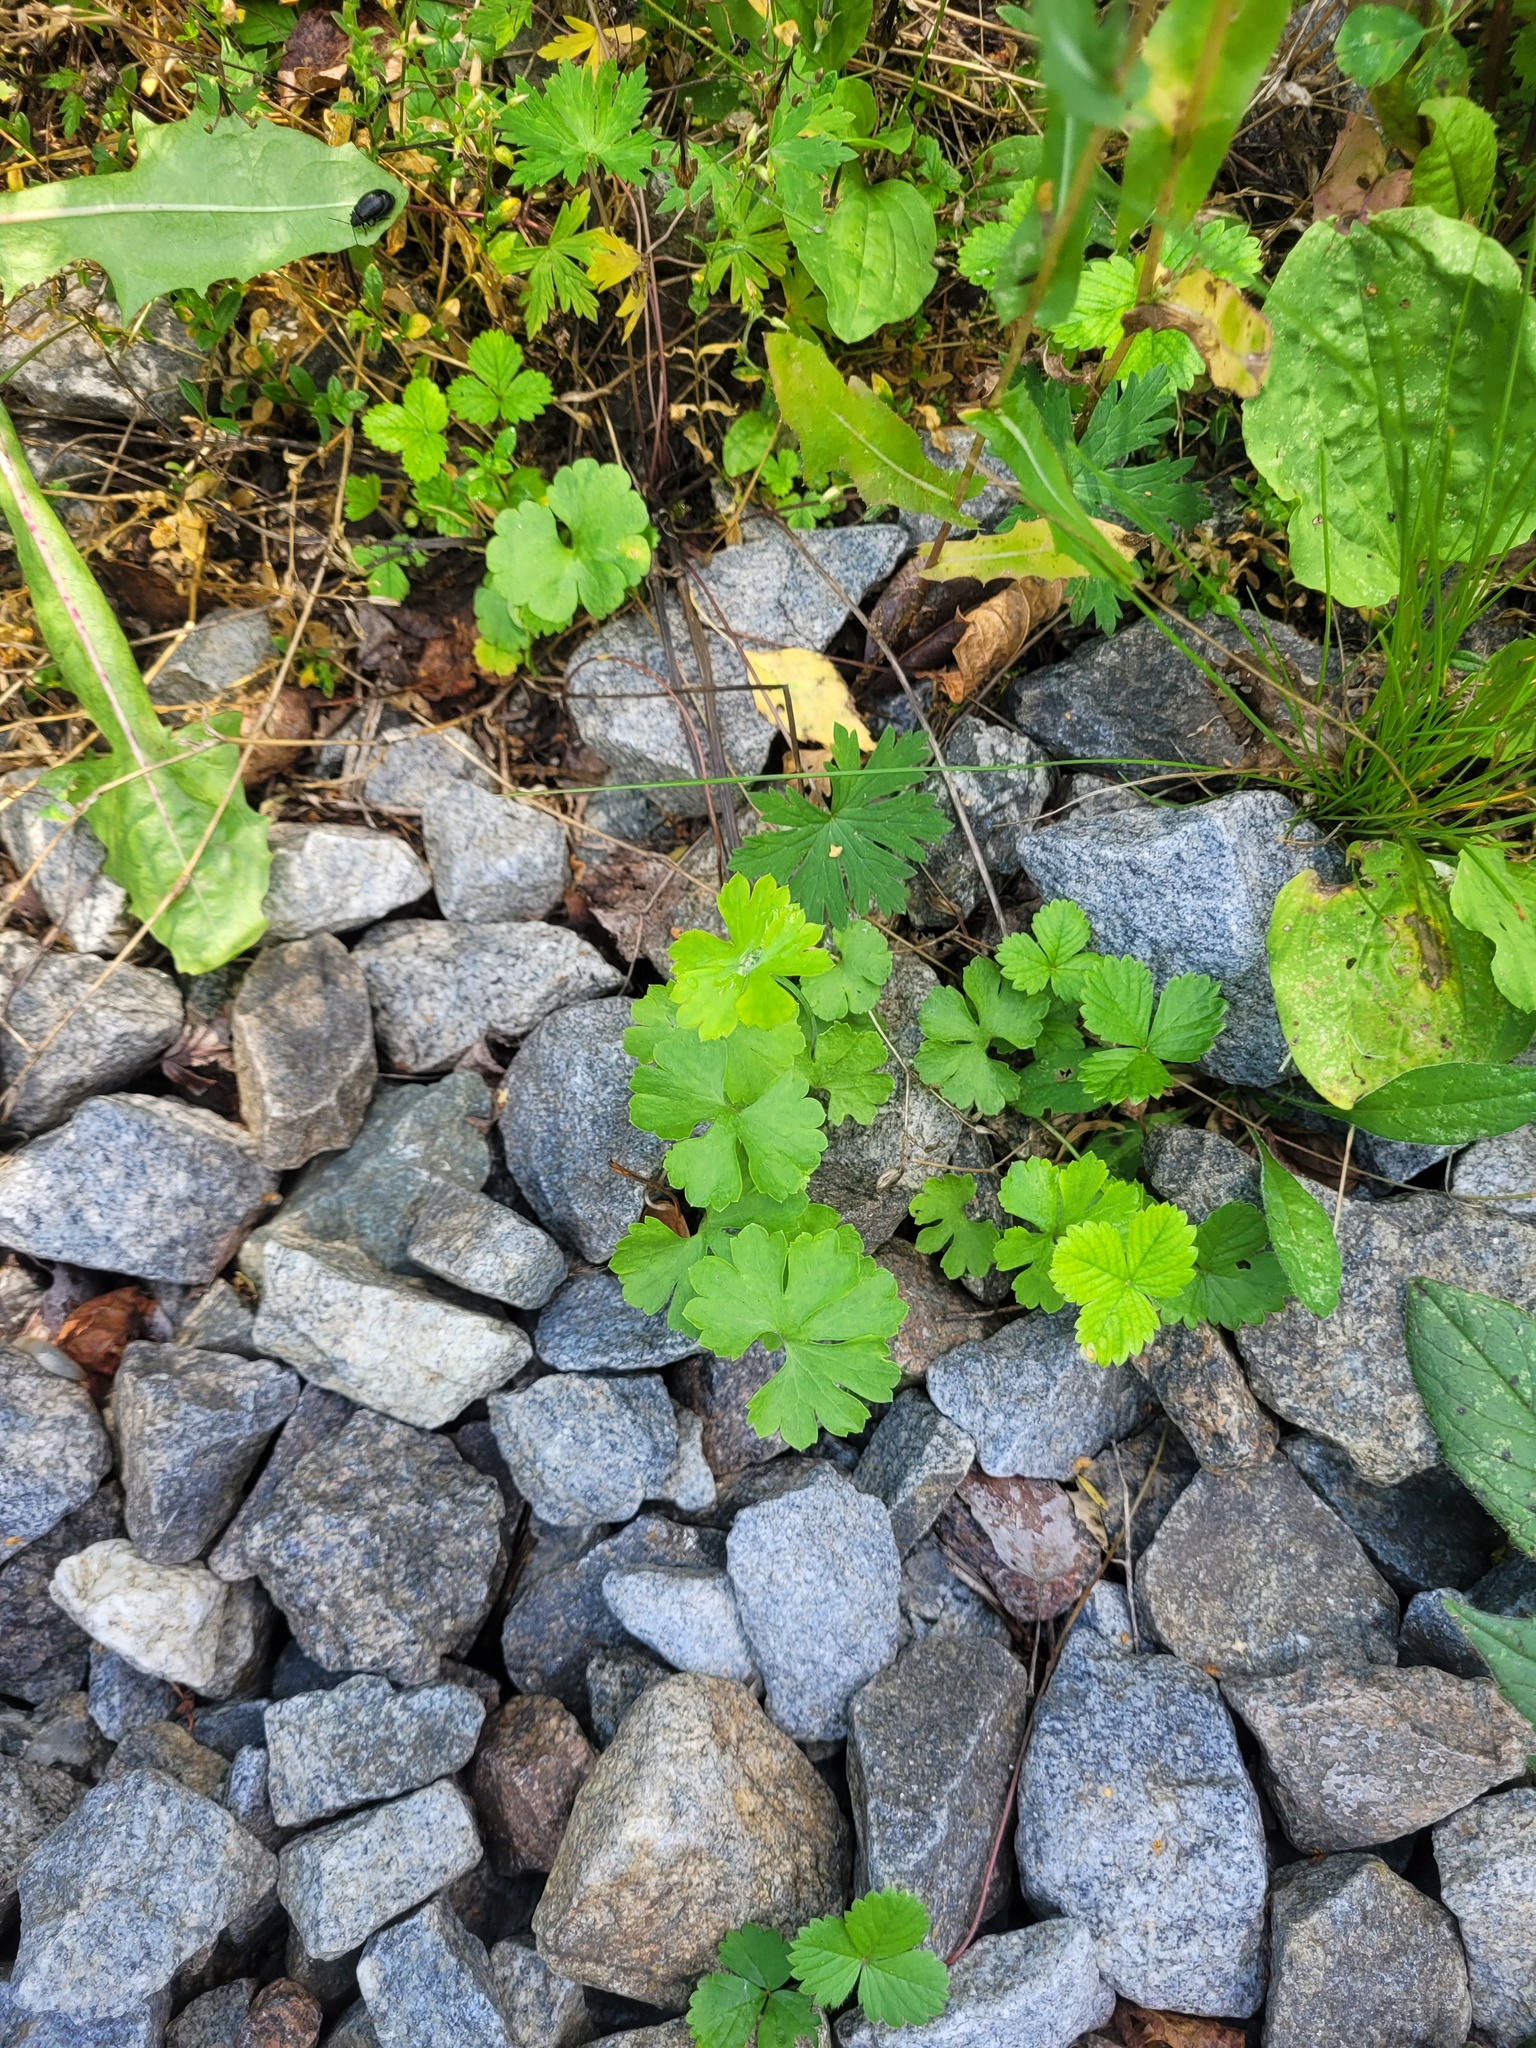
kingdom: Plantae
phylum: Tracheophyta
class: Magnoliopsida
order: Ranunculales
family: Ranunculaceae
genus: Ranunculus
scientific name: Ranunculus auricomus
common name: Goldilocks buttercup
